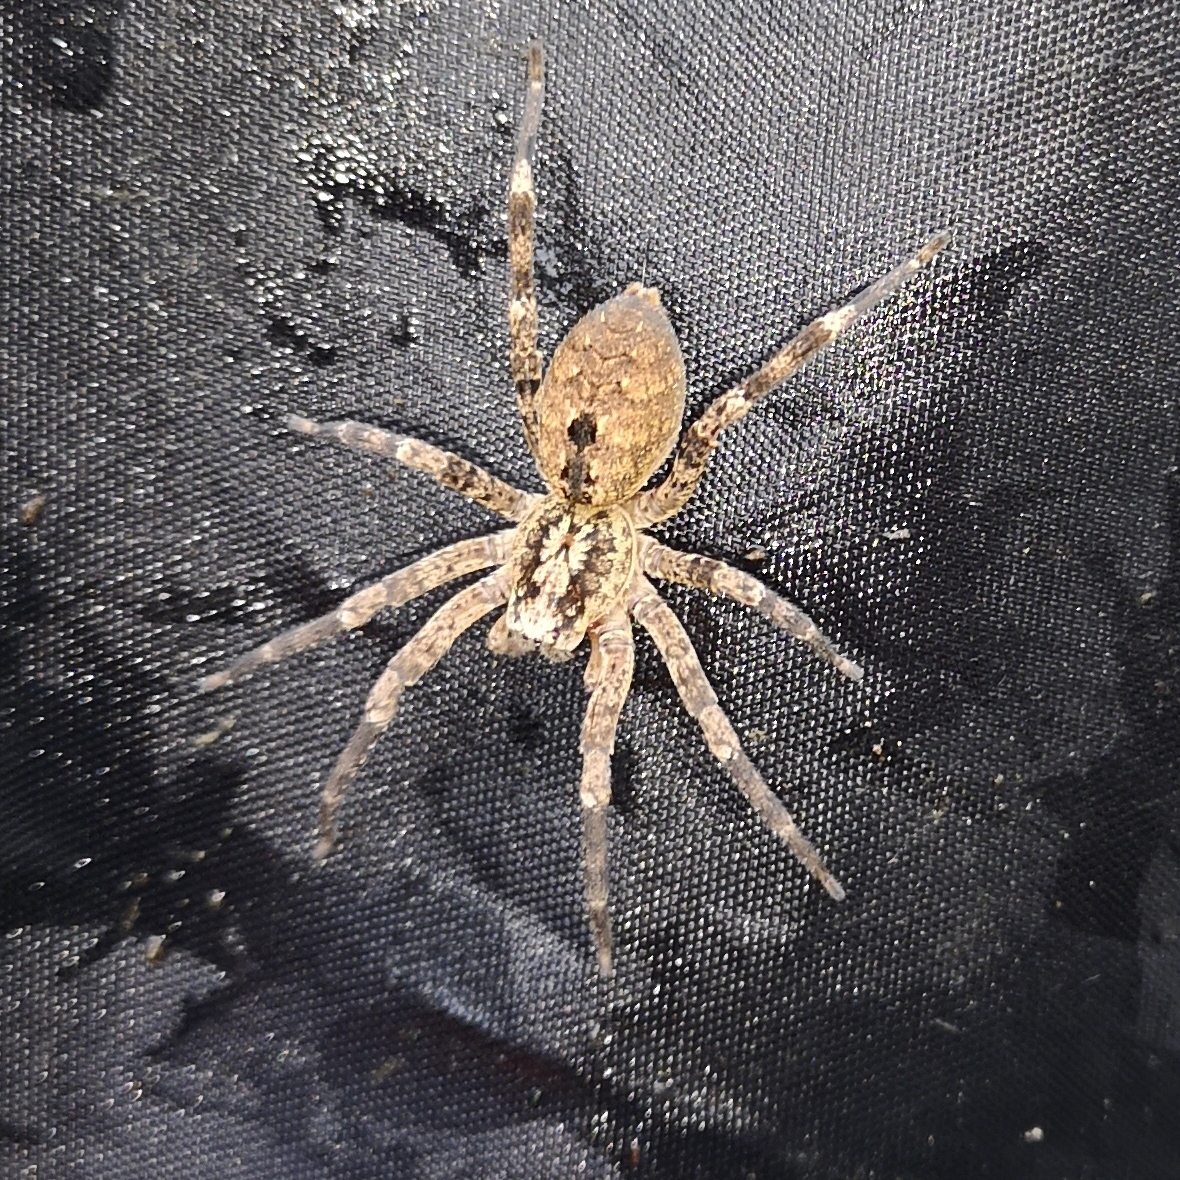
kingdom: Animalia
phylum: Arthropoda
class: Arachnida
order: Araneae
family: Zoropsidae
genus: Zoropsis
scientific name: Zoropsis spinimana
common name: Zoropsid spider
